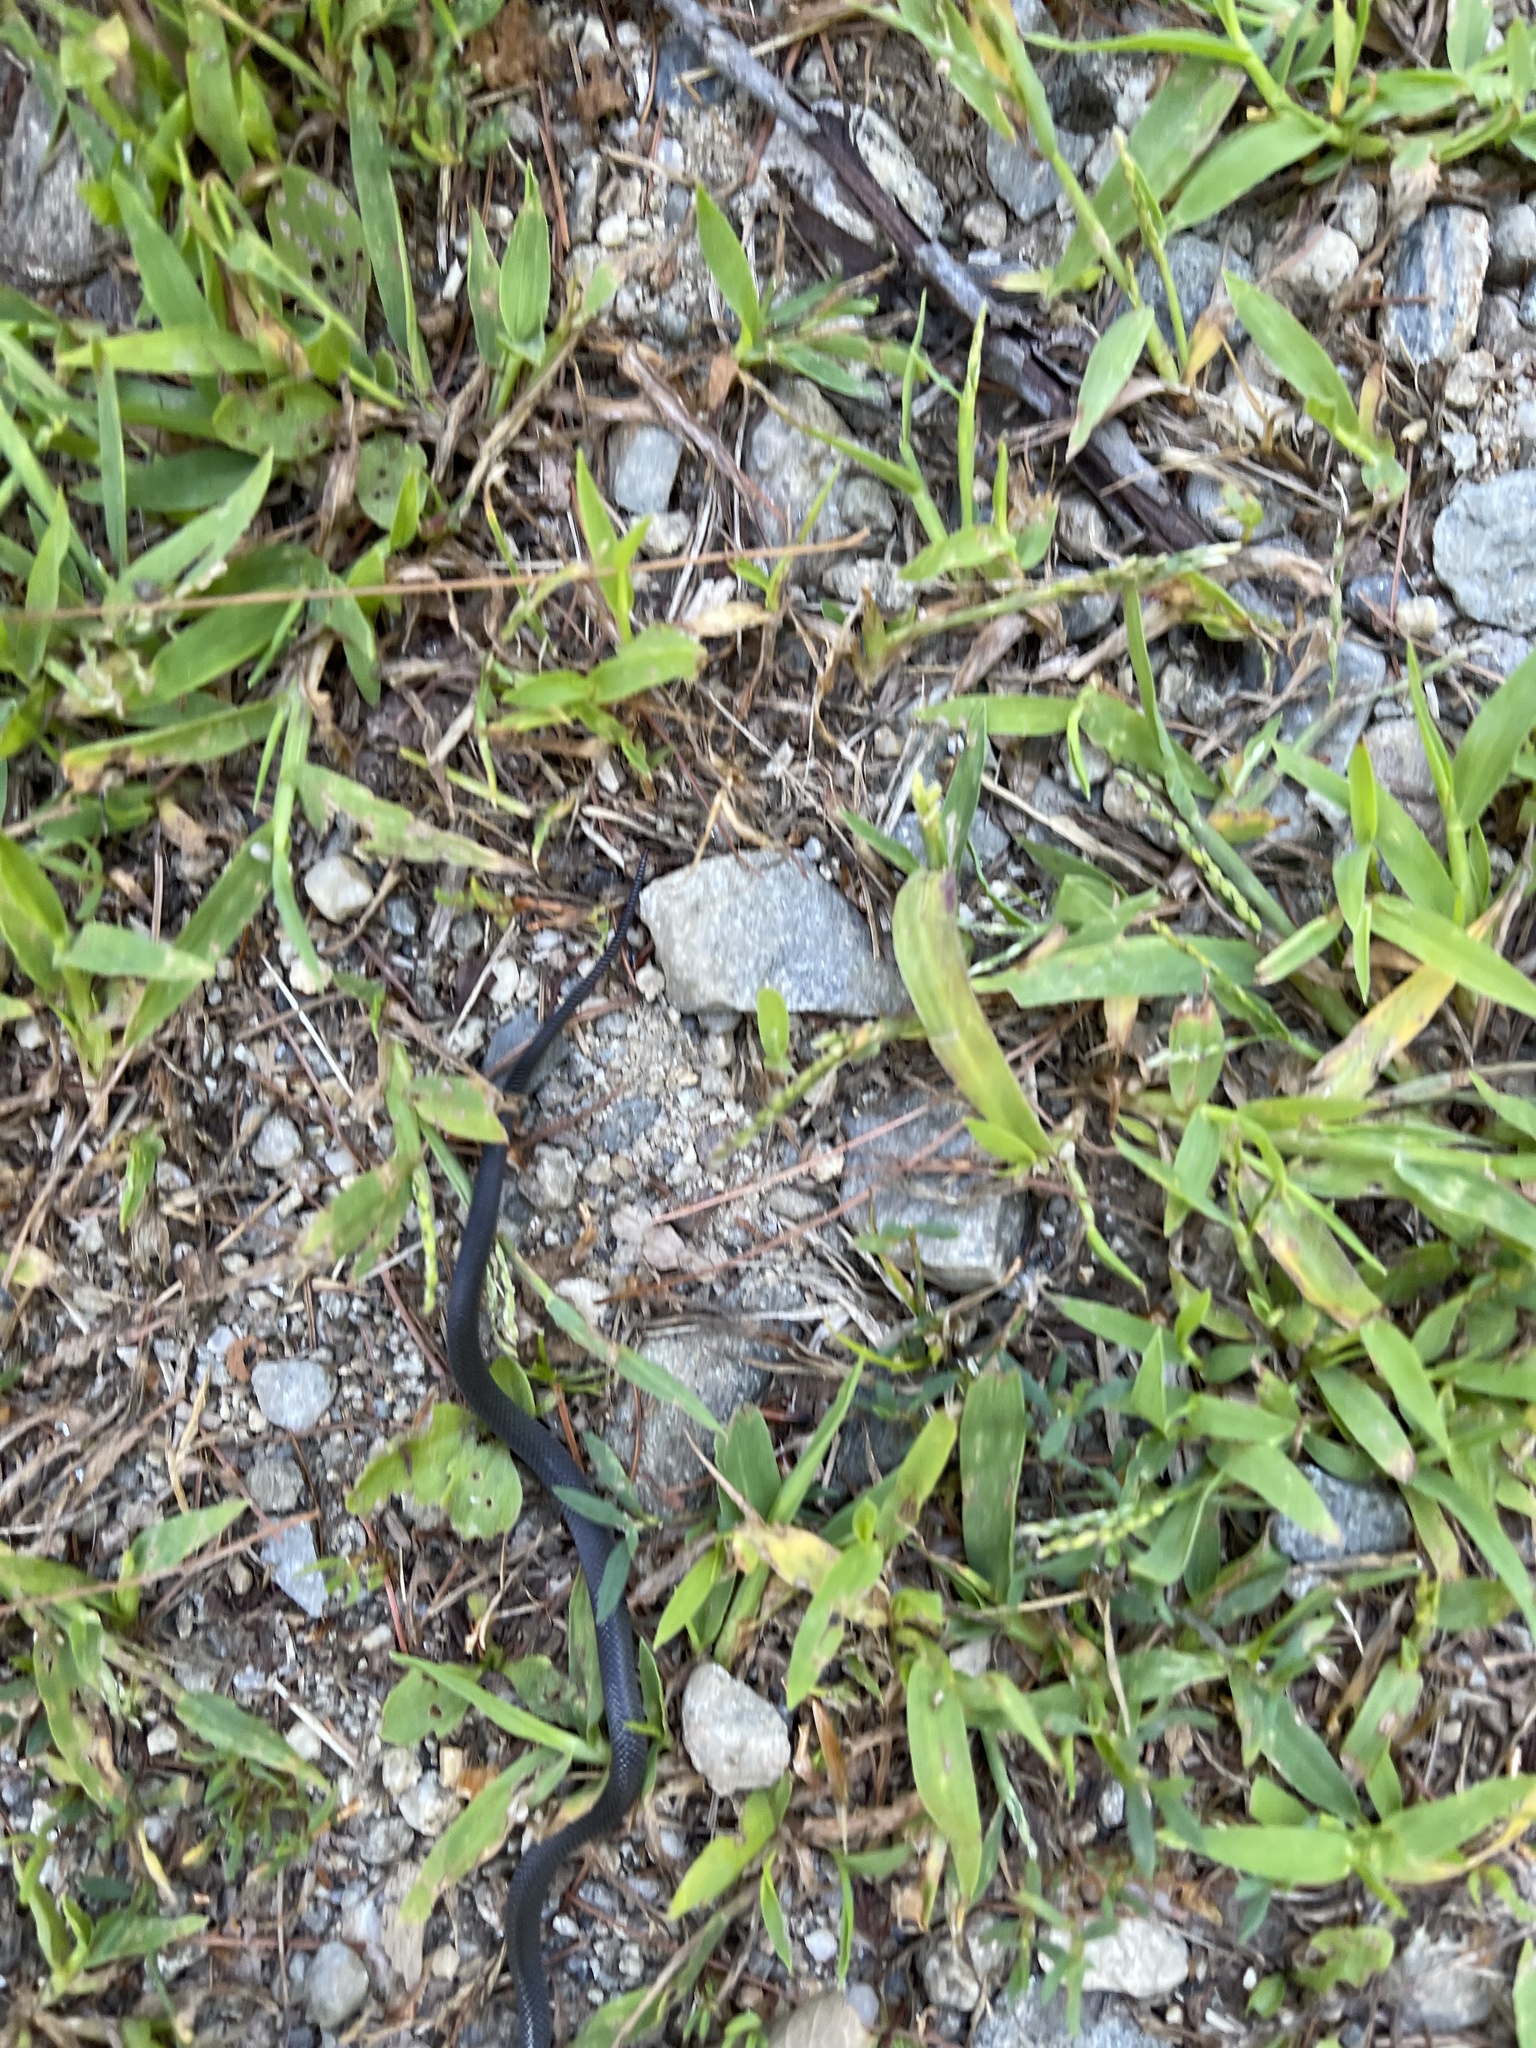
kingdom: Animalia
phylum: Chordata
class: Squamata
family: Colubridae
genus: Diadophis
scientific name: Diadophis punctatus
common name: Ringneck snake
